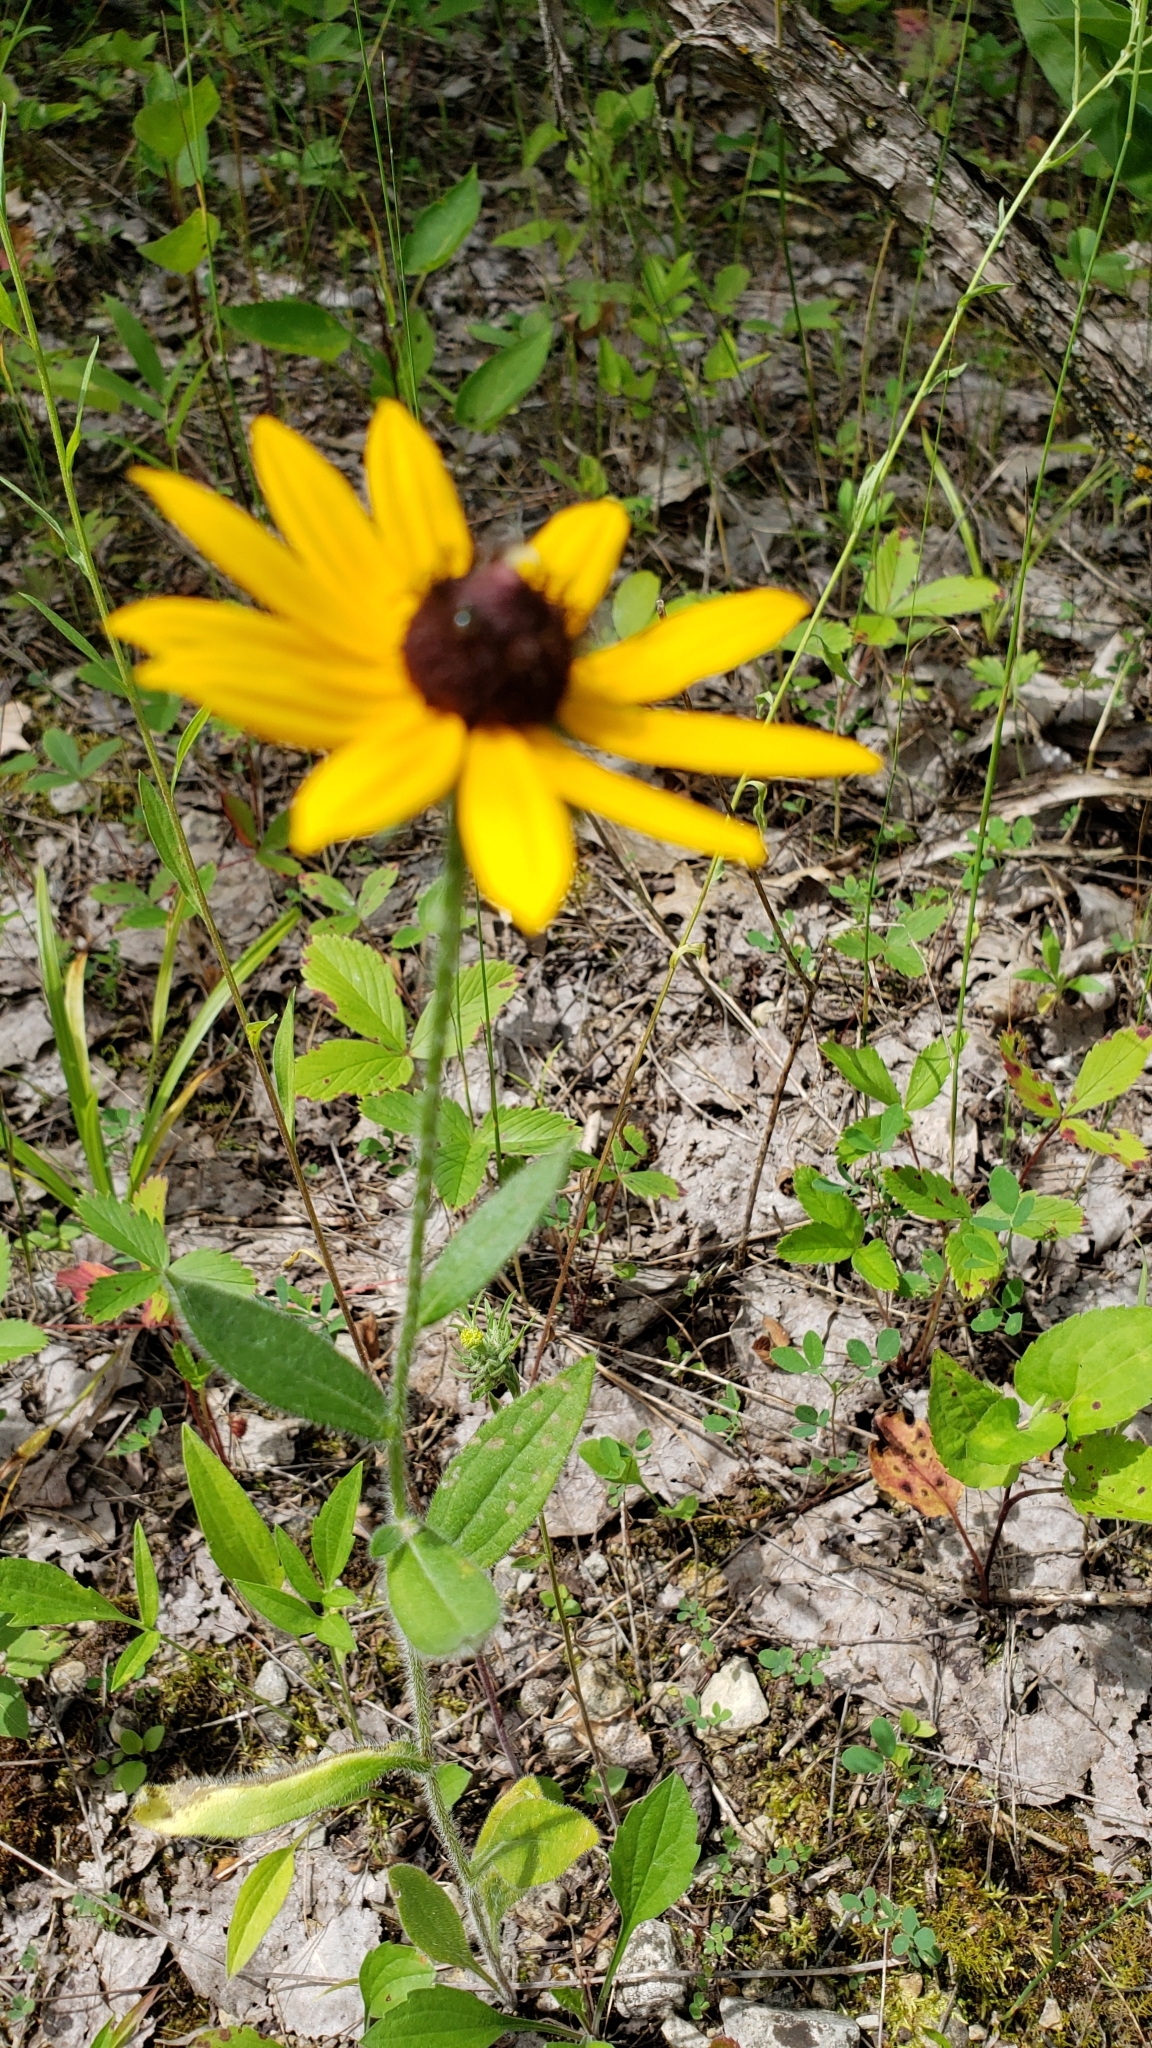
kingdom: Plantae
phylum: Tracheophyta
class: Magnoliopsida
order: Asterales
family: Asteraceae
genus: Rudbeckia
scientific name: Rudbeckia hirta
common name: Black-eyed-susan
